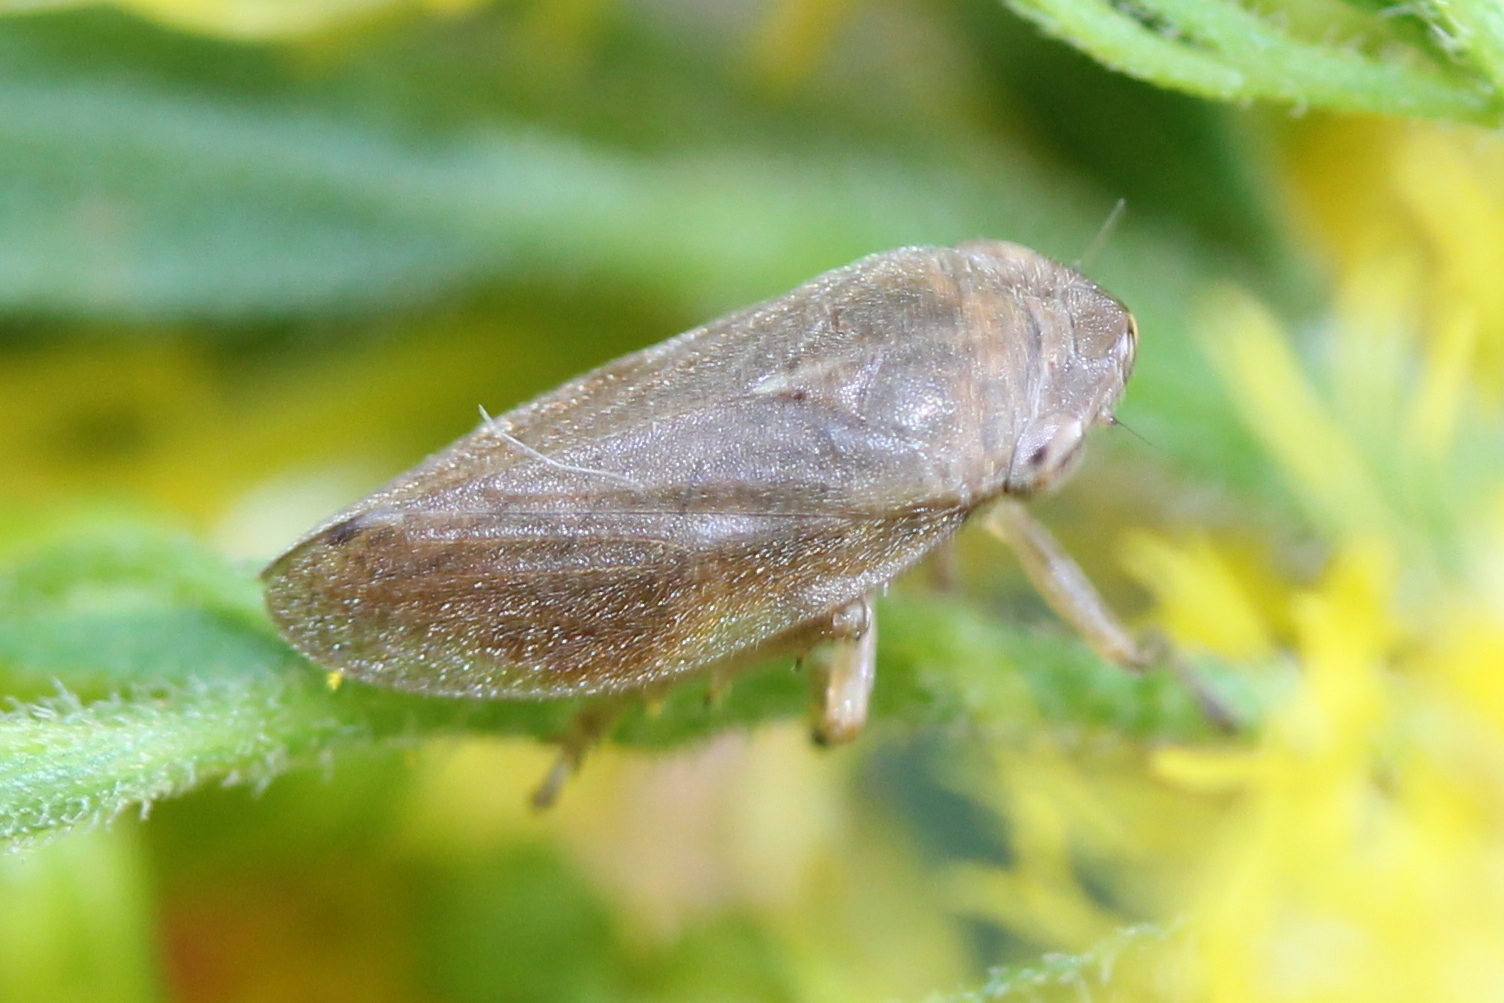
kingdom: Animalia
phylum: Arthropoda
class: Insecta
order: Hemiptera
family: Aphrophoridae
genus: Philaenus
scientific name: Philaenus spumarius
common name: Meadow spittlebug
